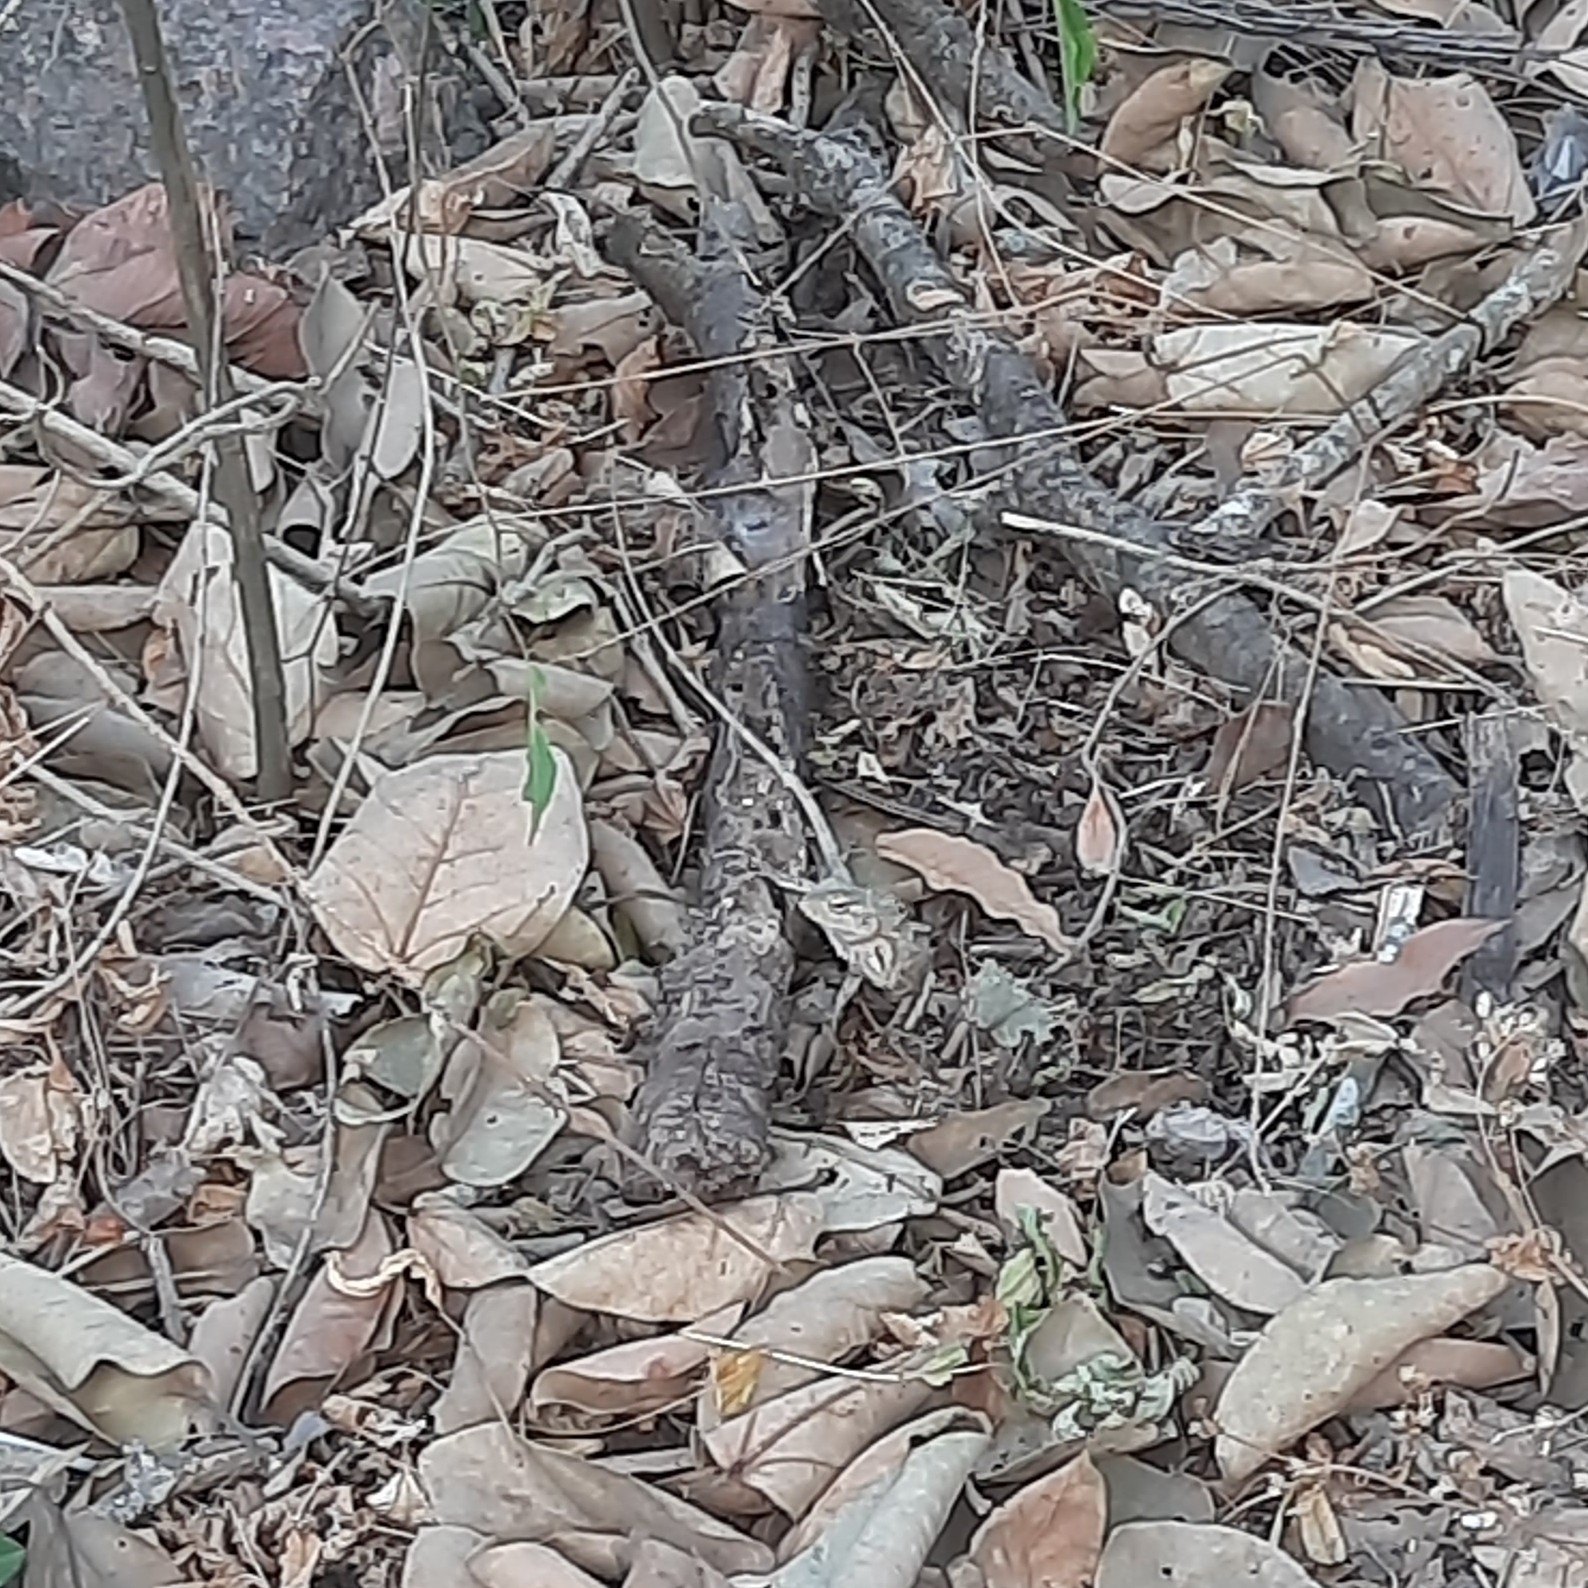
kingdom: Animalia
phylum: Chordata
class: Squamata
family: Agamidae
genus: Calotes
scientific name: Calotes versicolor
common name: Oriental garden lizard
